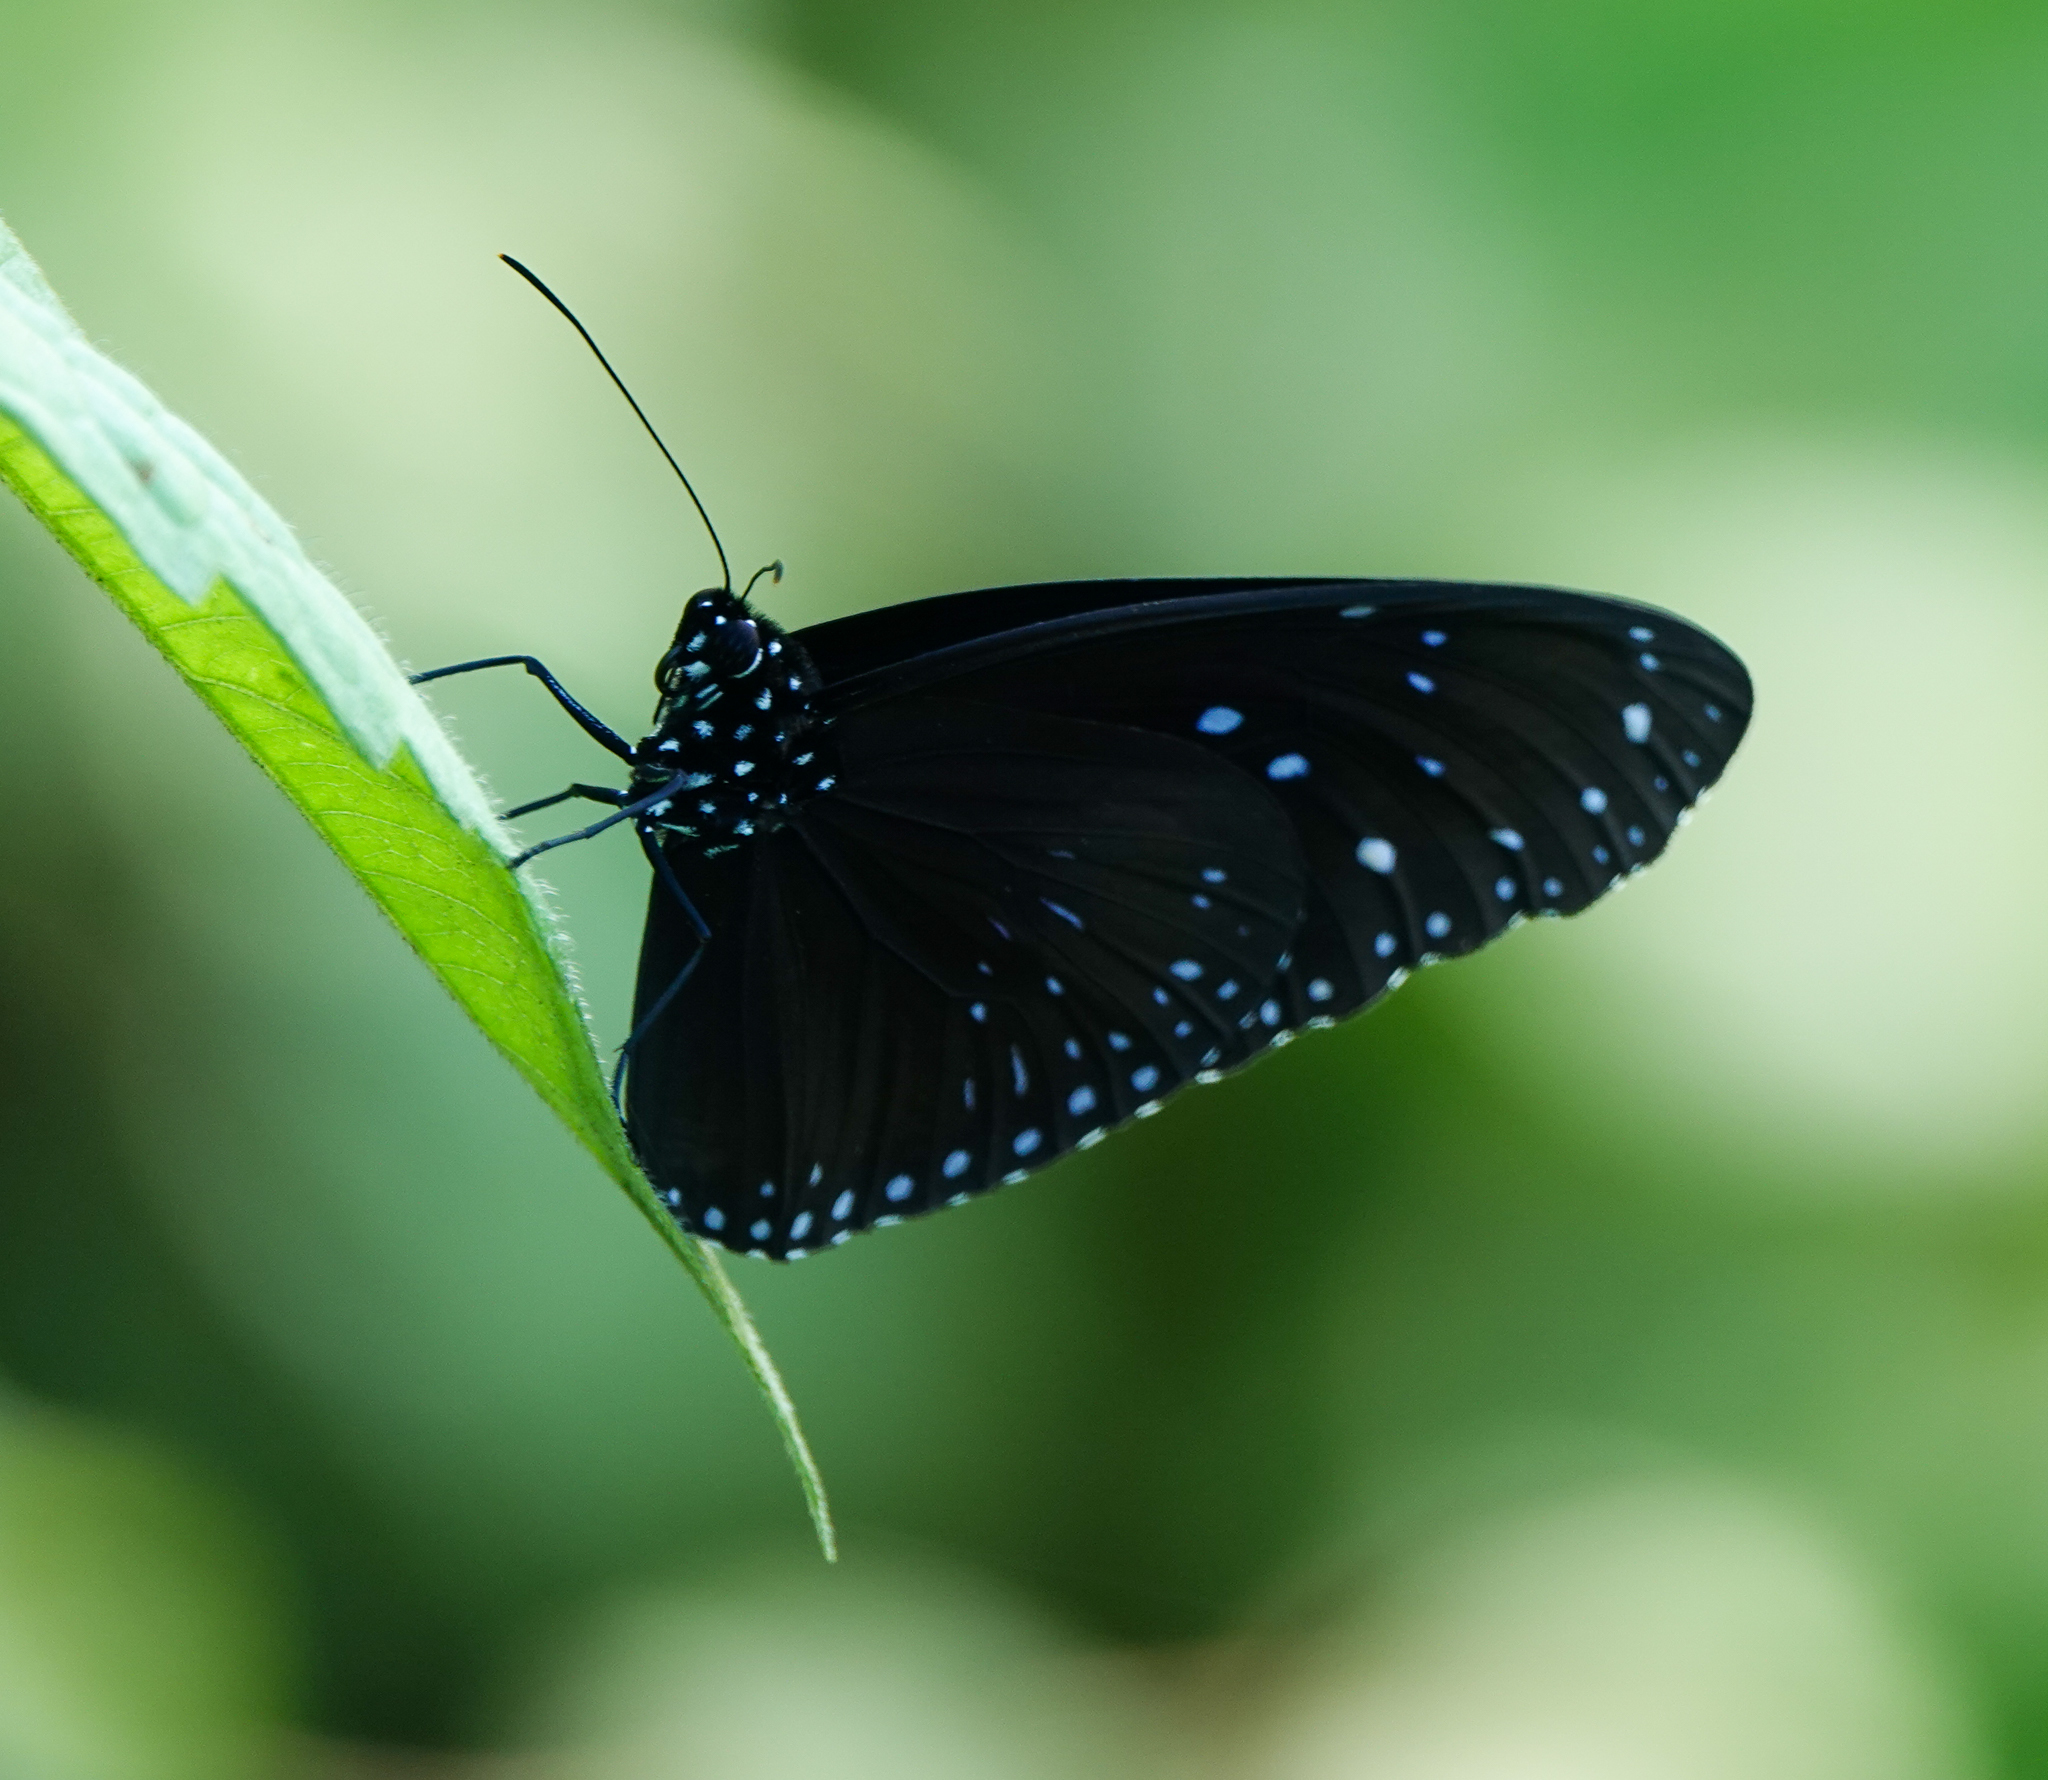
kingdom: Animalia
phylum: Arthropoda
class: Insecta
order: Lepidoptera
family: Nymphalidae
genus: Euploea
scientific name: Euploea midamus
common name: Blue-spotted crow butterfly
